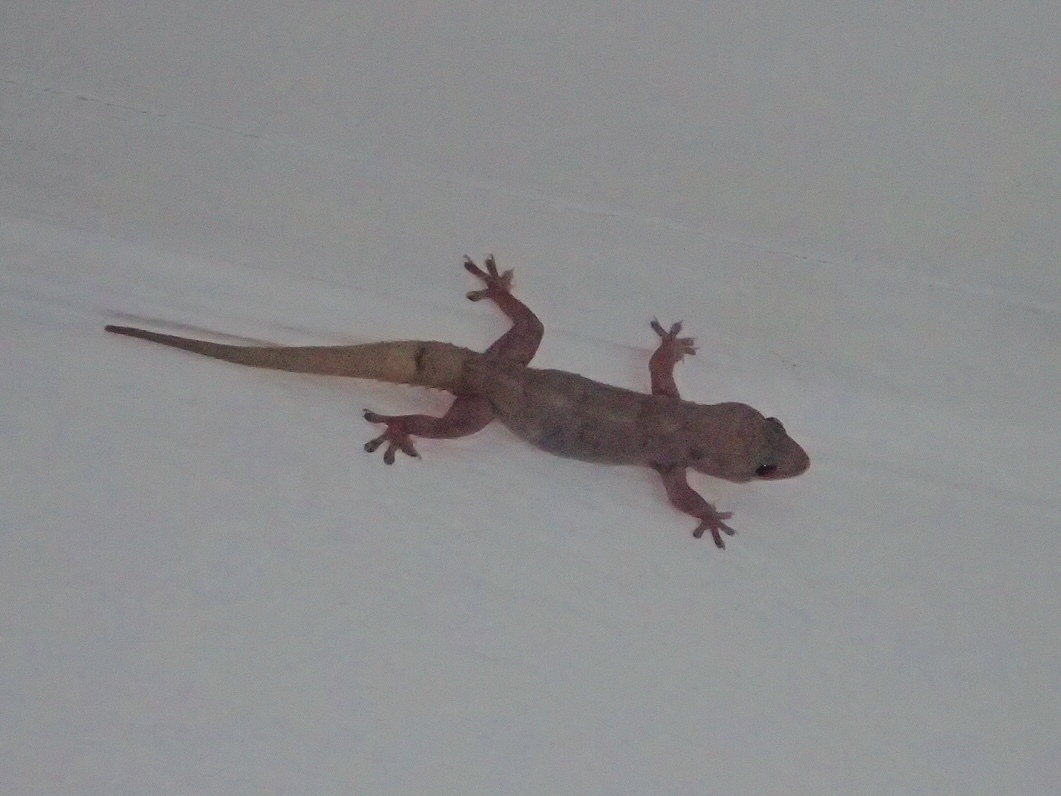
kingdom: Animalia
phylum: Chordata
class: Squamata
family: Gekkonidae
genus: Hemidactylus
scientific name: Hemidactylus mabouia
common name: House gecko
